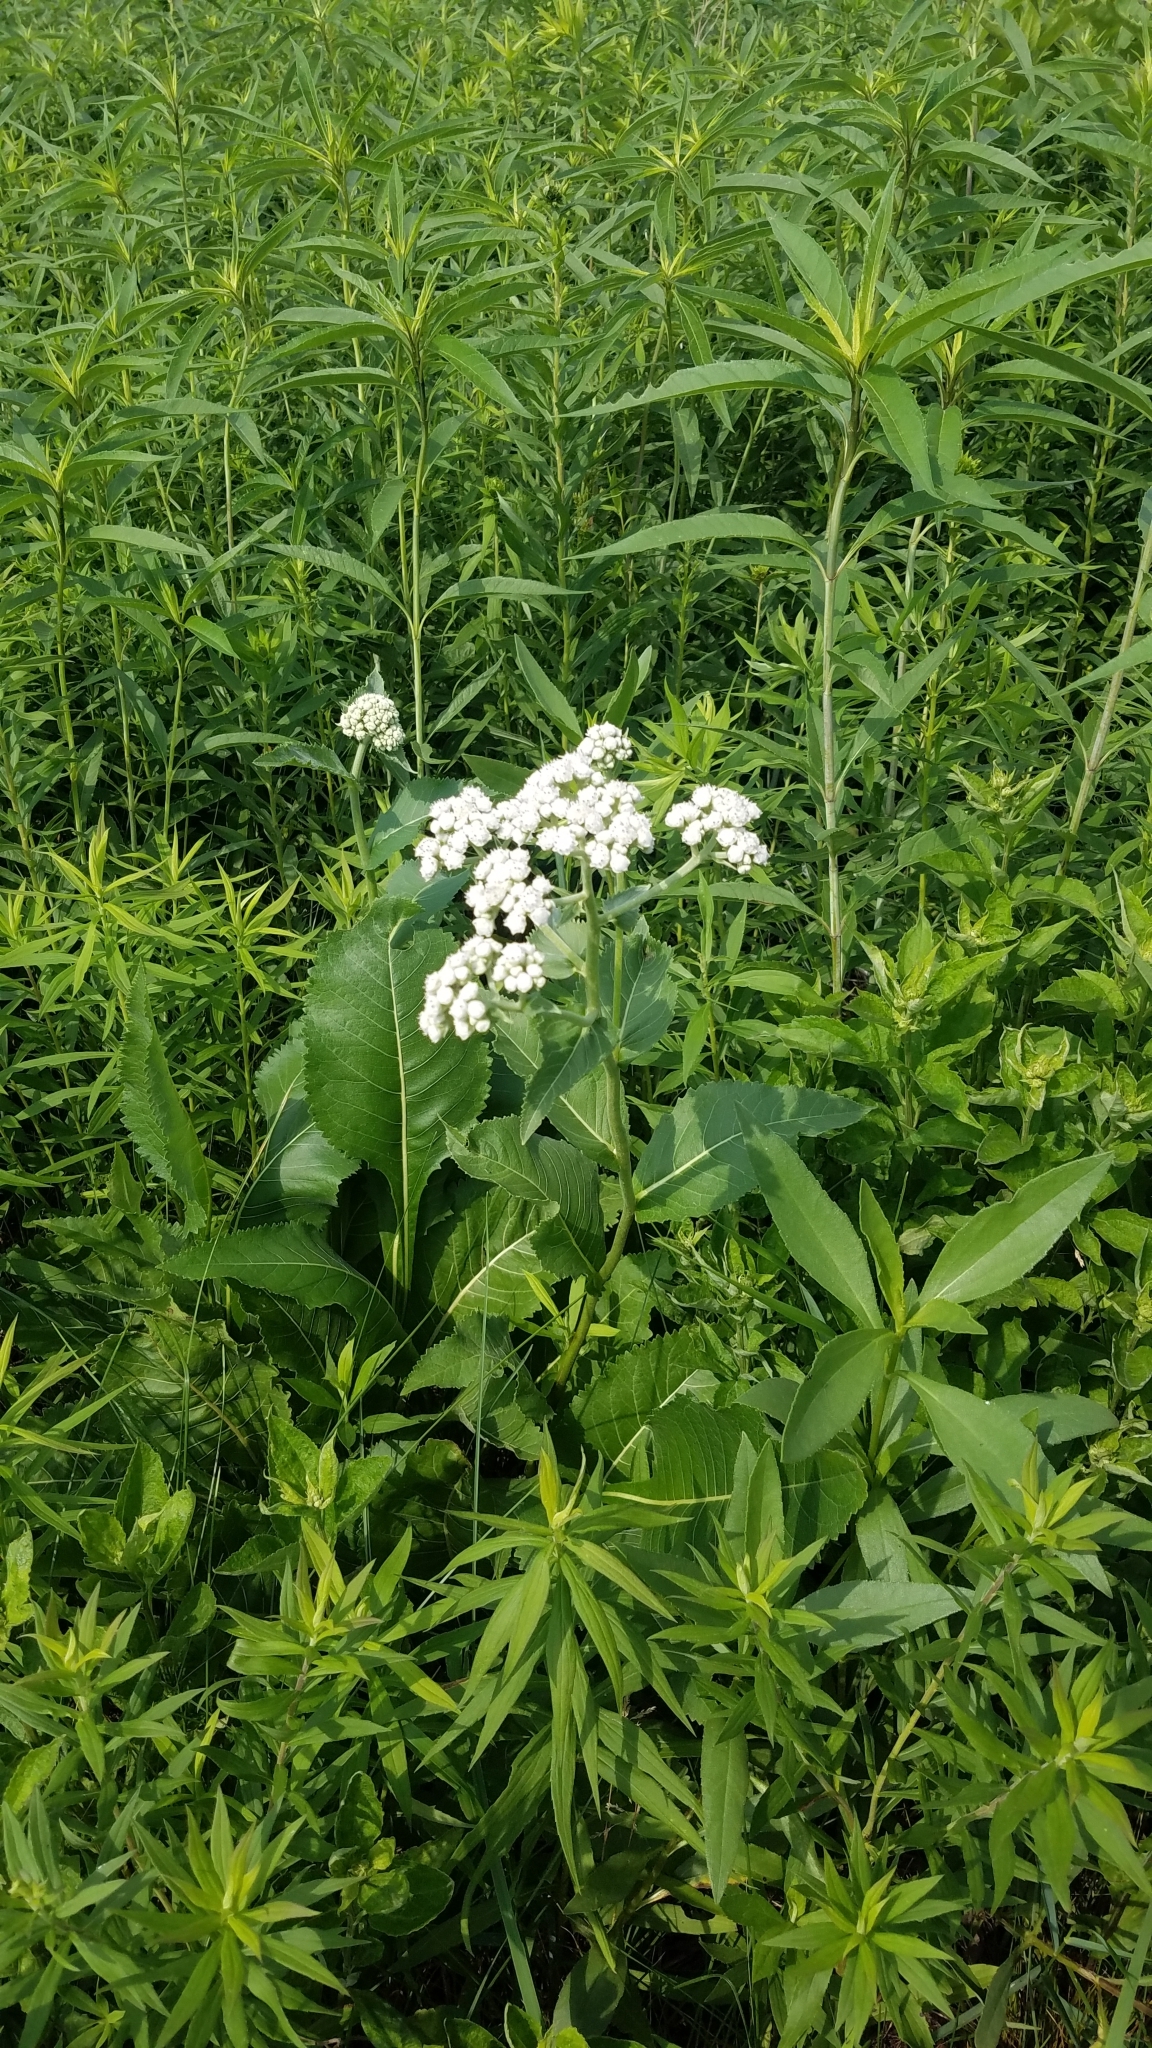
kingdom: Plantae
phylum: Tracheophyta
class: Magnoliopsida
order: Asterales
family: Asteraceae
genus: Parthenium
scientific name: Parthenium integrifolium
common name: American feverfew
